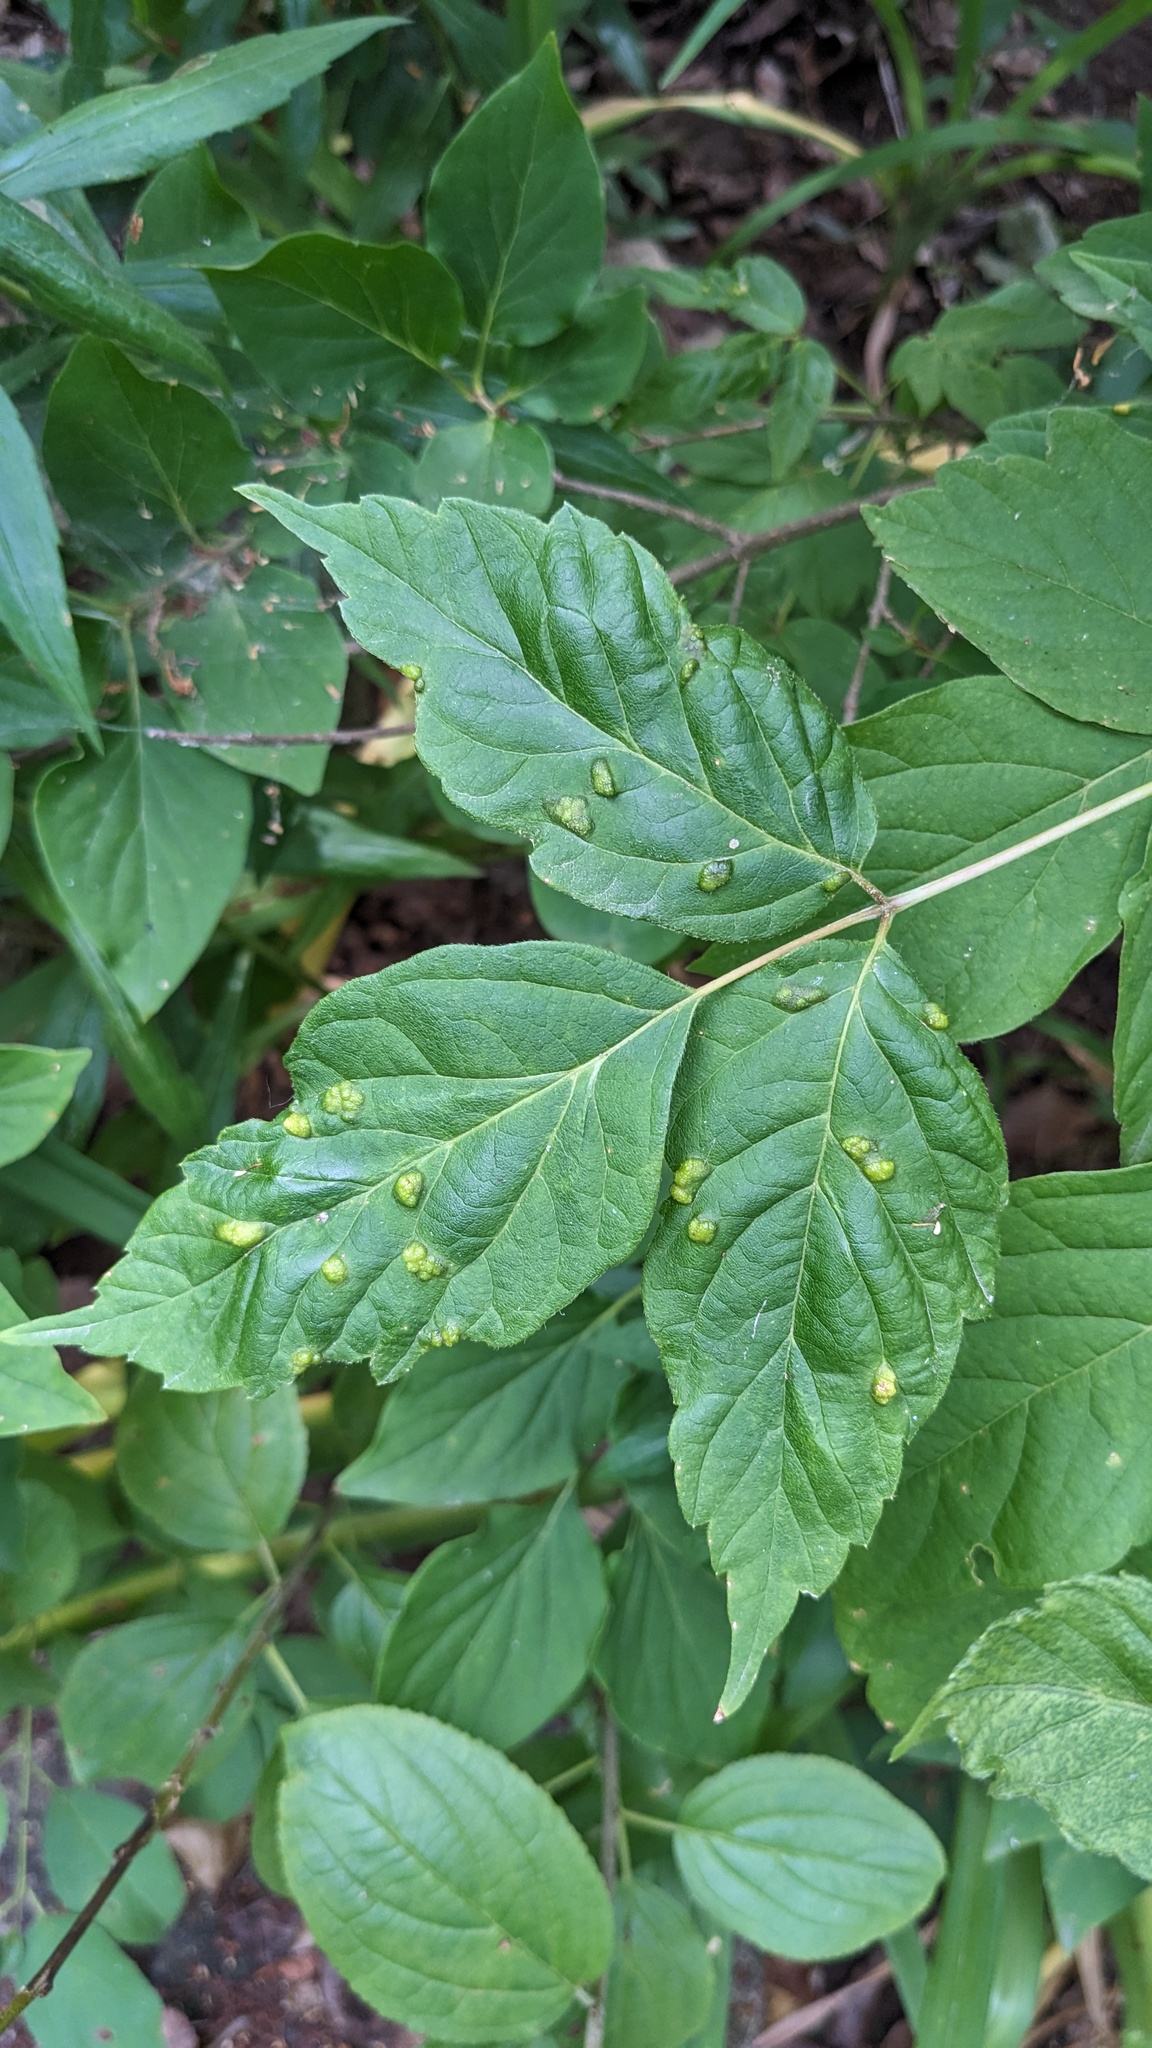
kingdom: Animalia
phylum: Arthropoda
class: Arachnida
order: Trombidiformes
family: Eriophyidae
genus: Aceria
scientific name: Aceria
